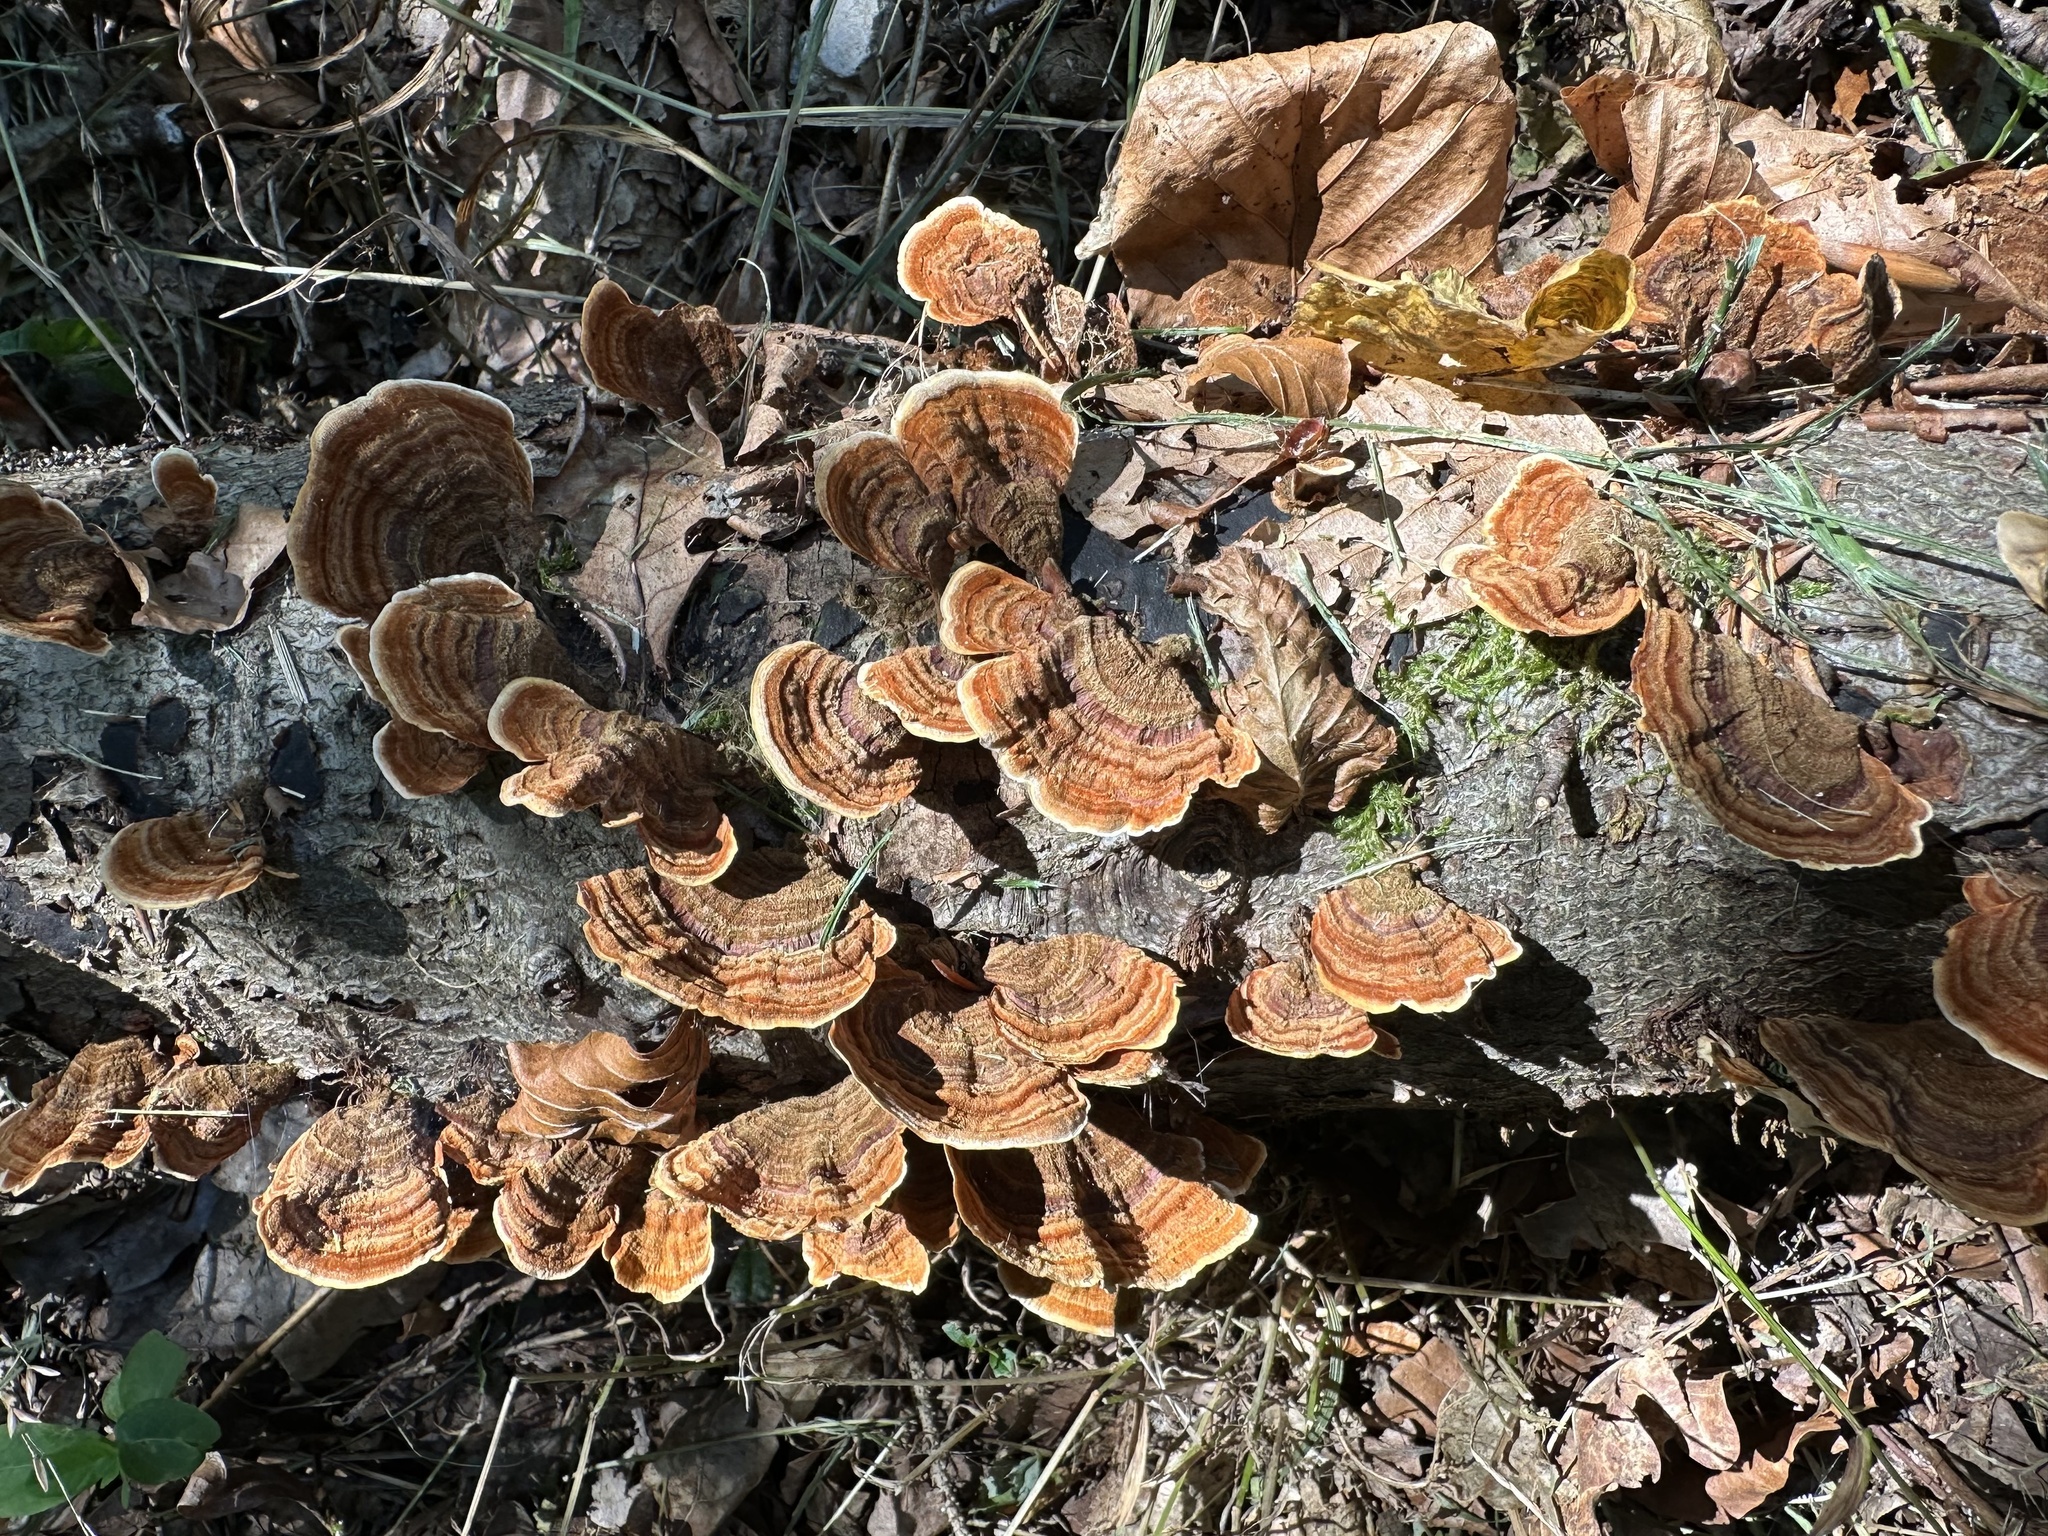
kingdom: Fungi
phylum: Basidiomycota
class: Agaricomycetes
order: Russulales
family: Stereaceae
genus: Stereum
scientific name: Stereum subtomentosum
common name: Yellowing curtain crust
